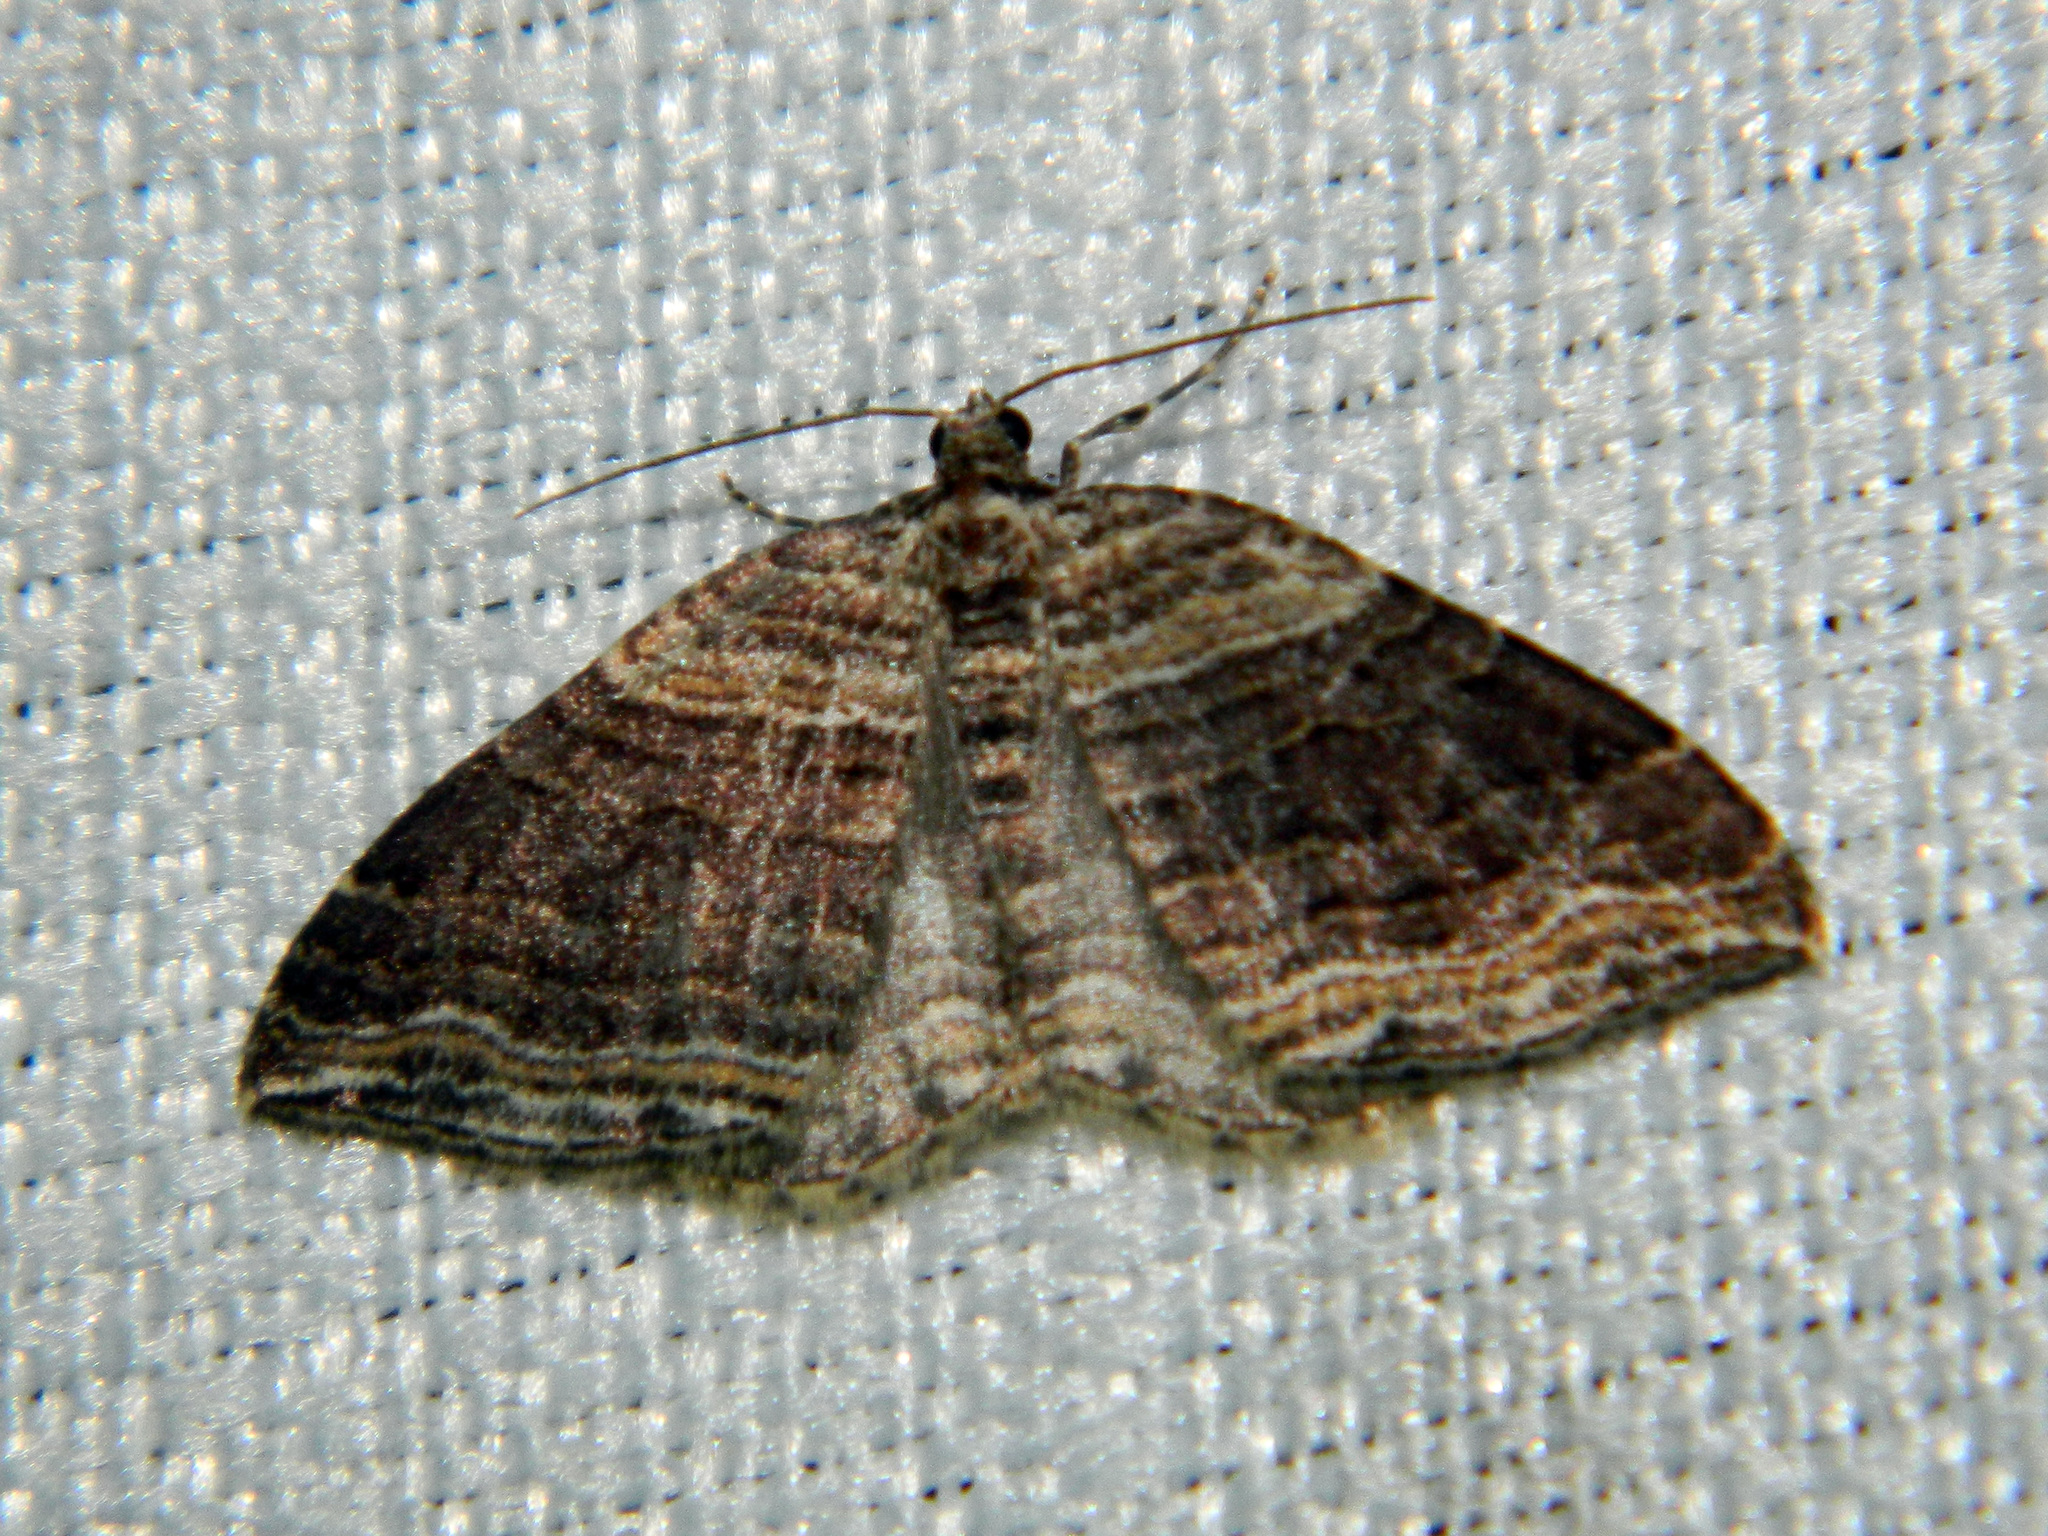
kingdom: Animalia
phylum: Arthropoda
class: Insecta
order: Lepidoptera
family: Geometridae
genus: Anticlea
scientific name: Anticlea multiferata
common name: Many-lined carpet
